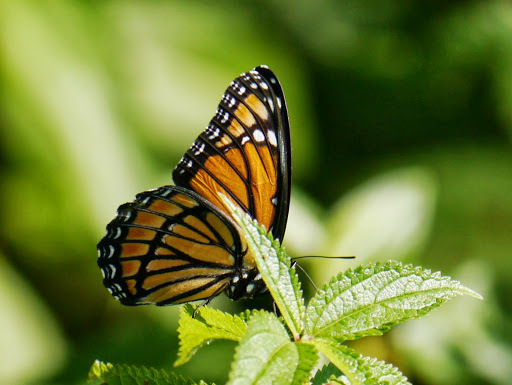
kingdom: Animalia
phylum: Arthropoda
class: Insecta
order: Lepidoptera
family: Nymphalidae
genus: Limenitis
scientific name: Limenitis archippus
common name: Viceroy
